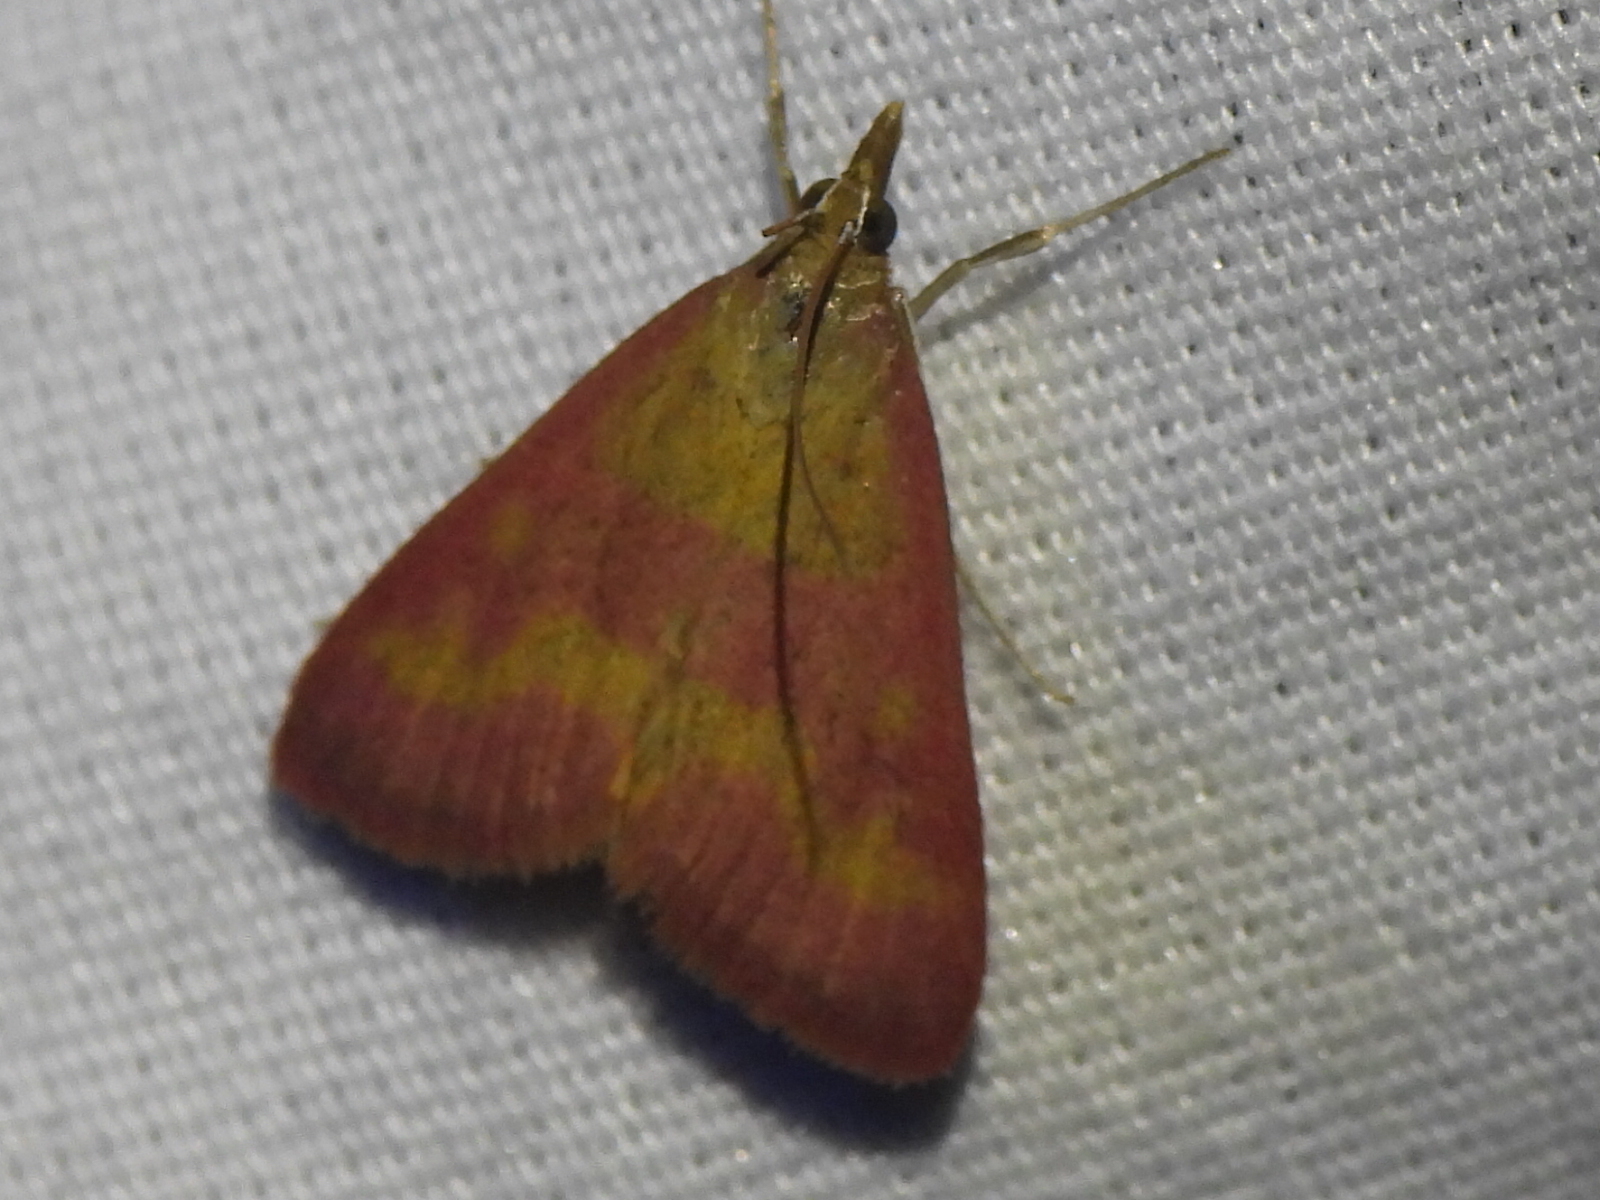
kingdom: Animalia
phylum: Arthropoda
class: Insecta
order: Lepidoptera
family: Crambidae
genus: Pyrausta
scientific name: Pyrausta laticlavia
